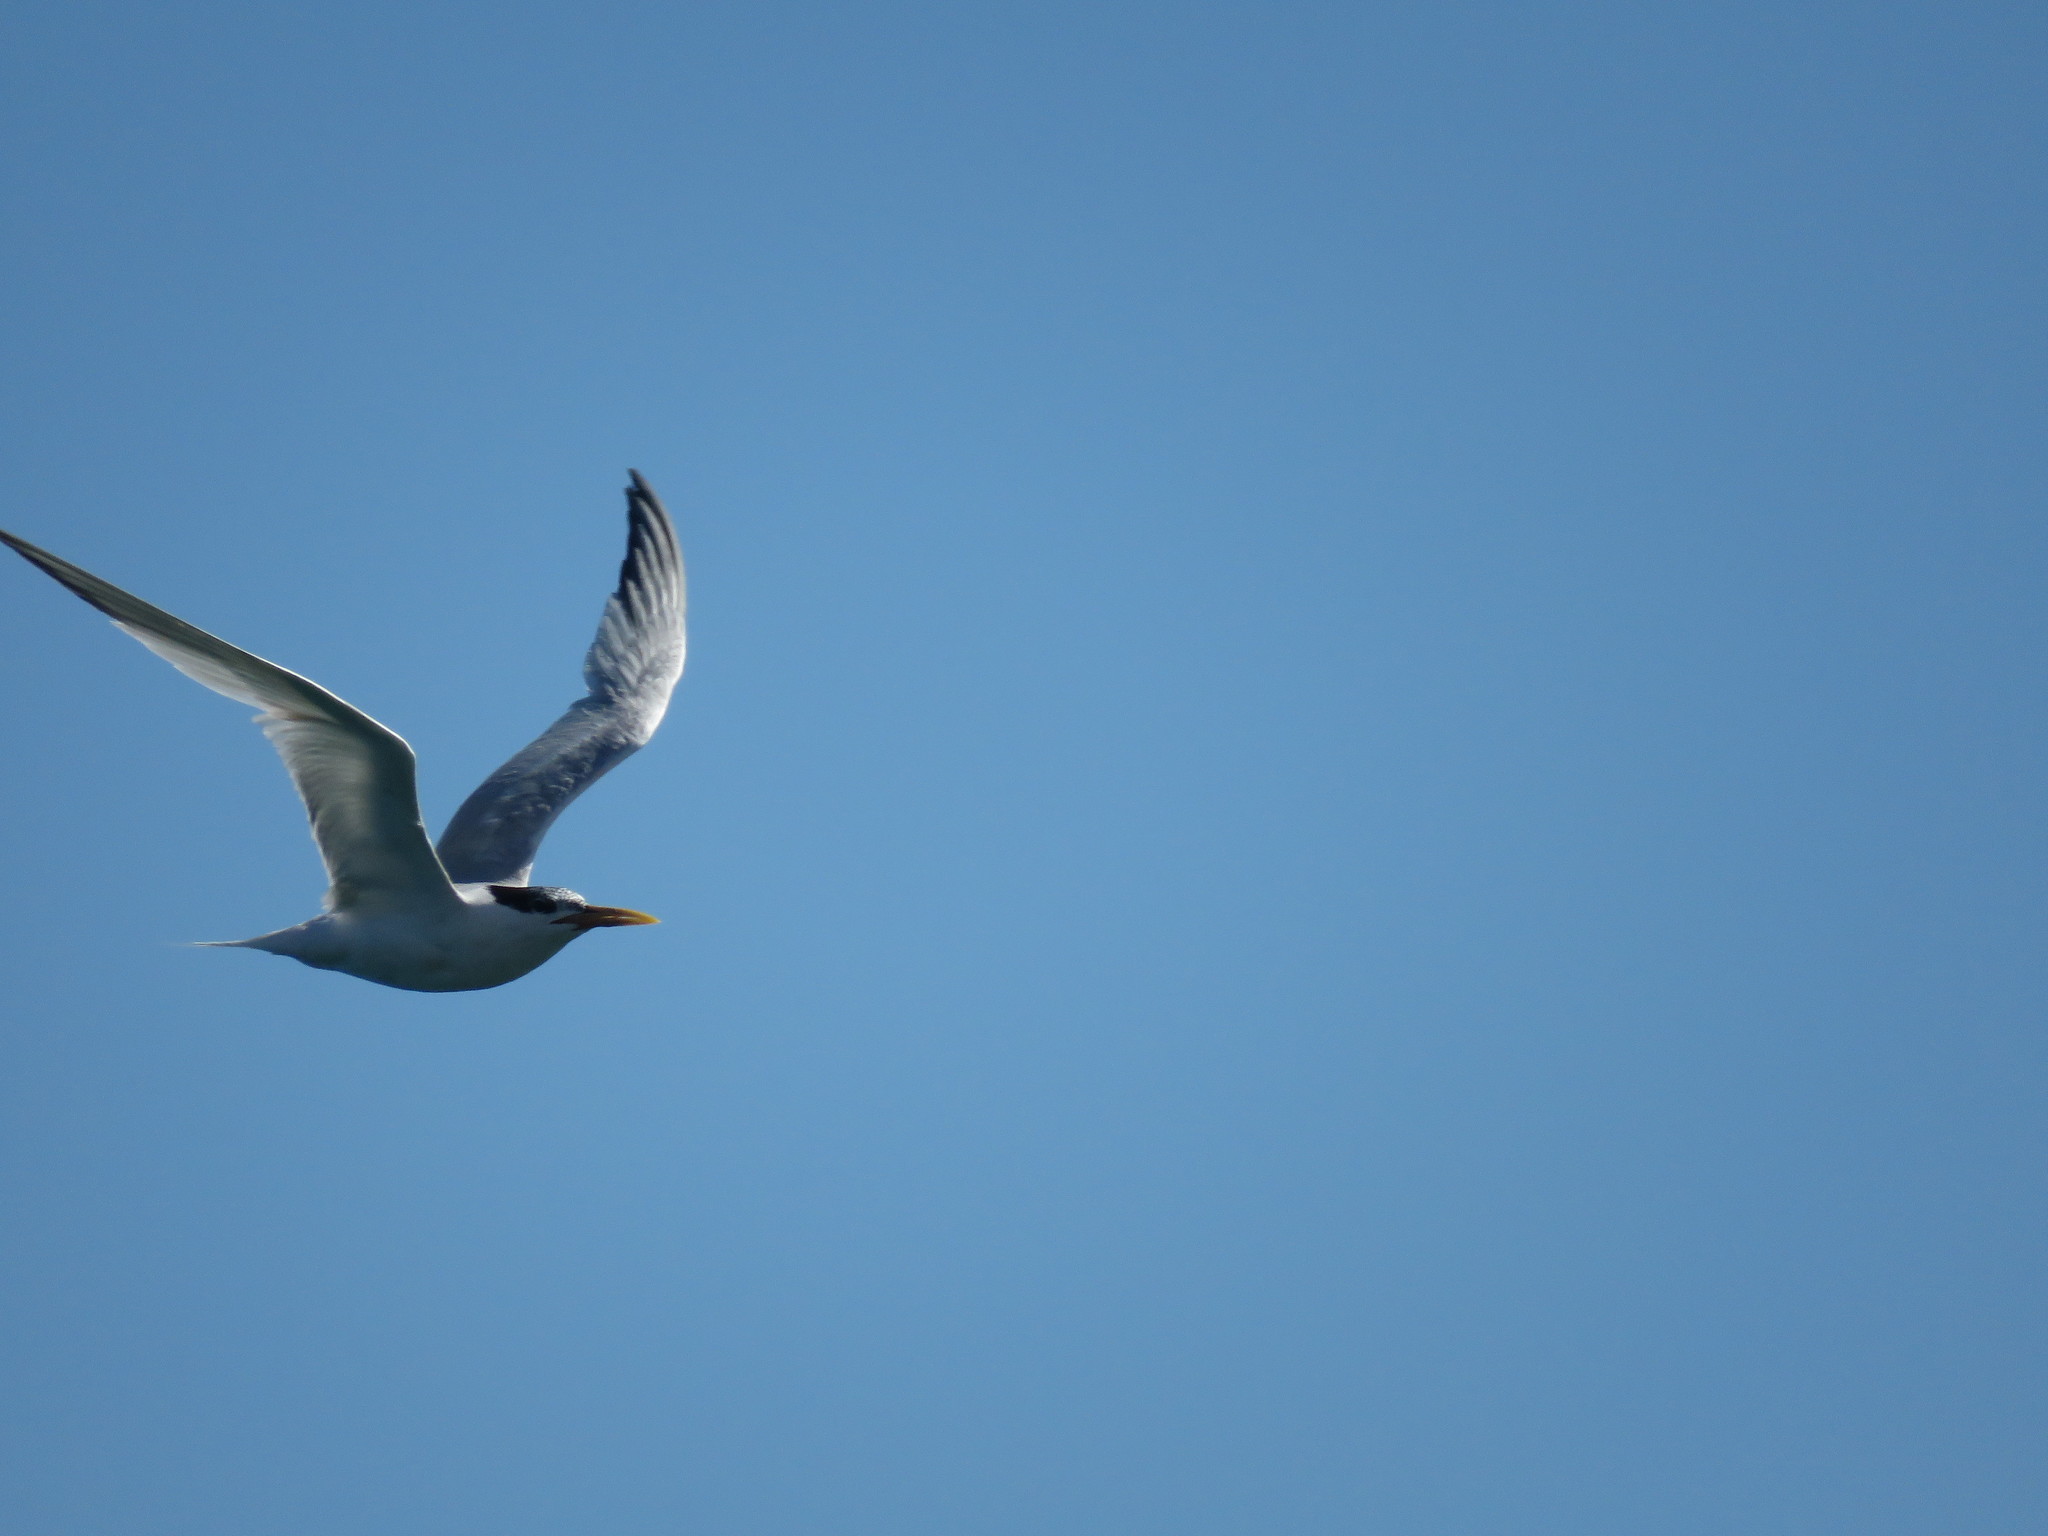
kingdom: Animalia
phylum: Chordata
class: Aves
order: Charadriiformes
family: Laridae
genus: Thalasseus
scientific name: Thalasseus maximus
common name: Royal tern
